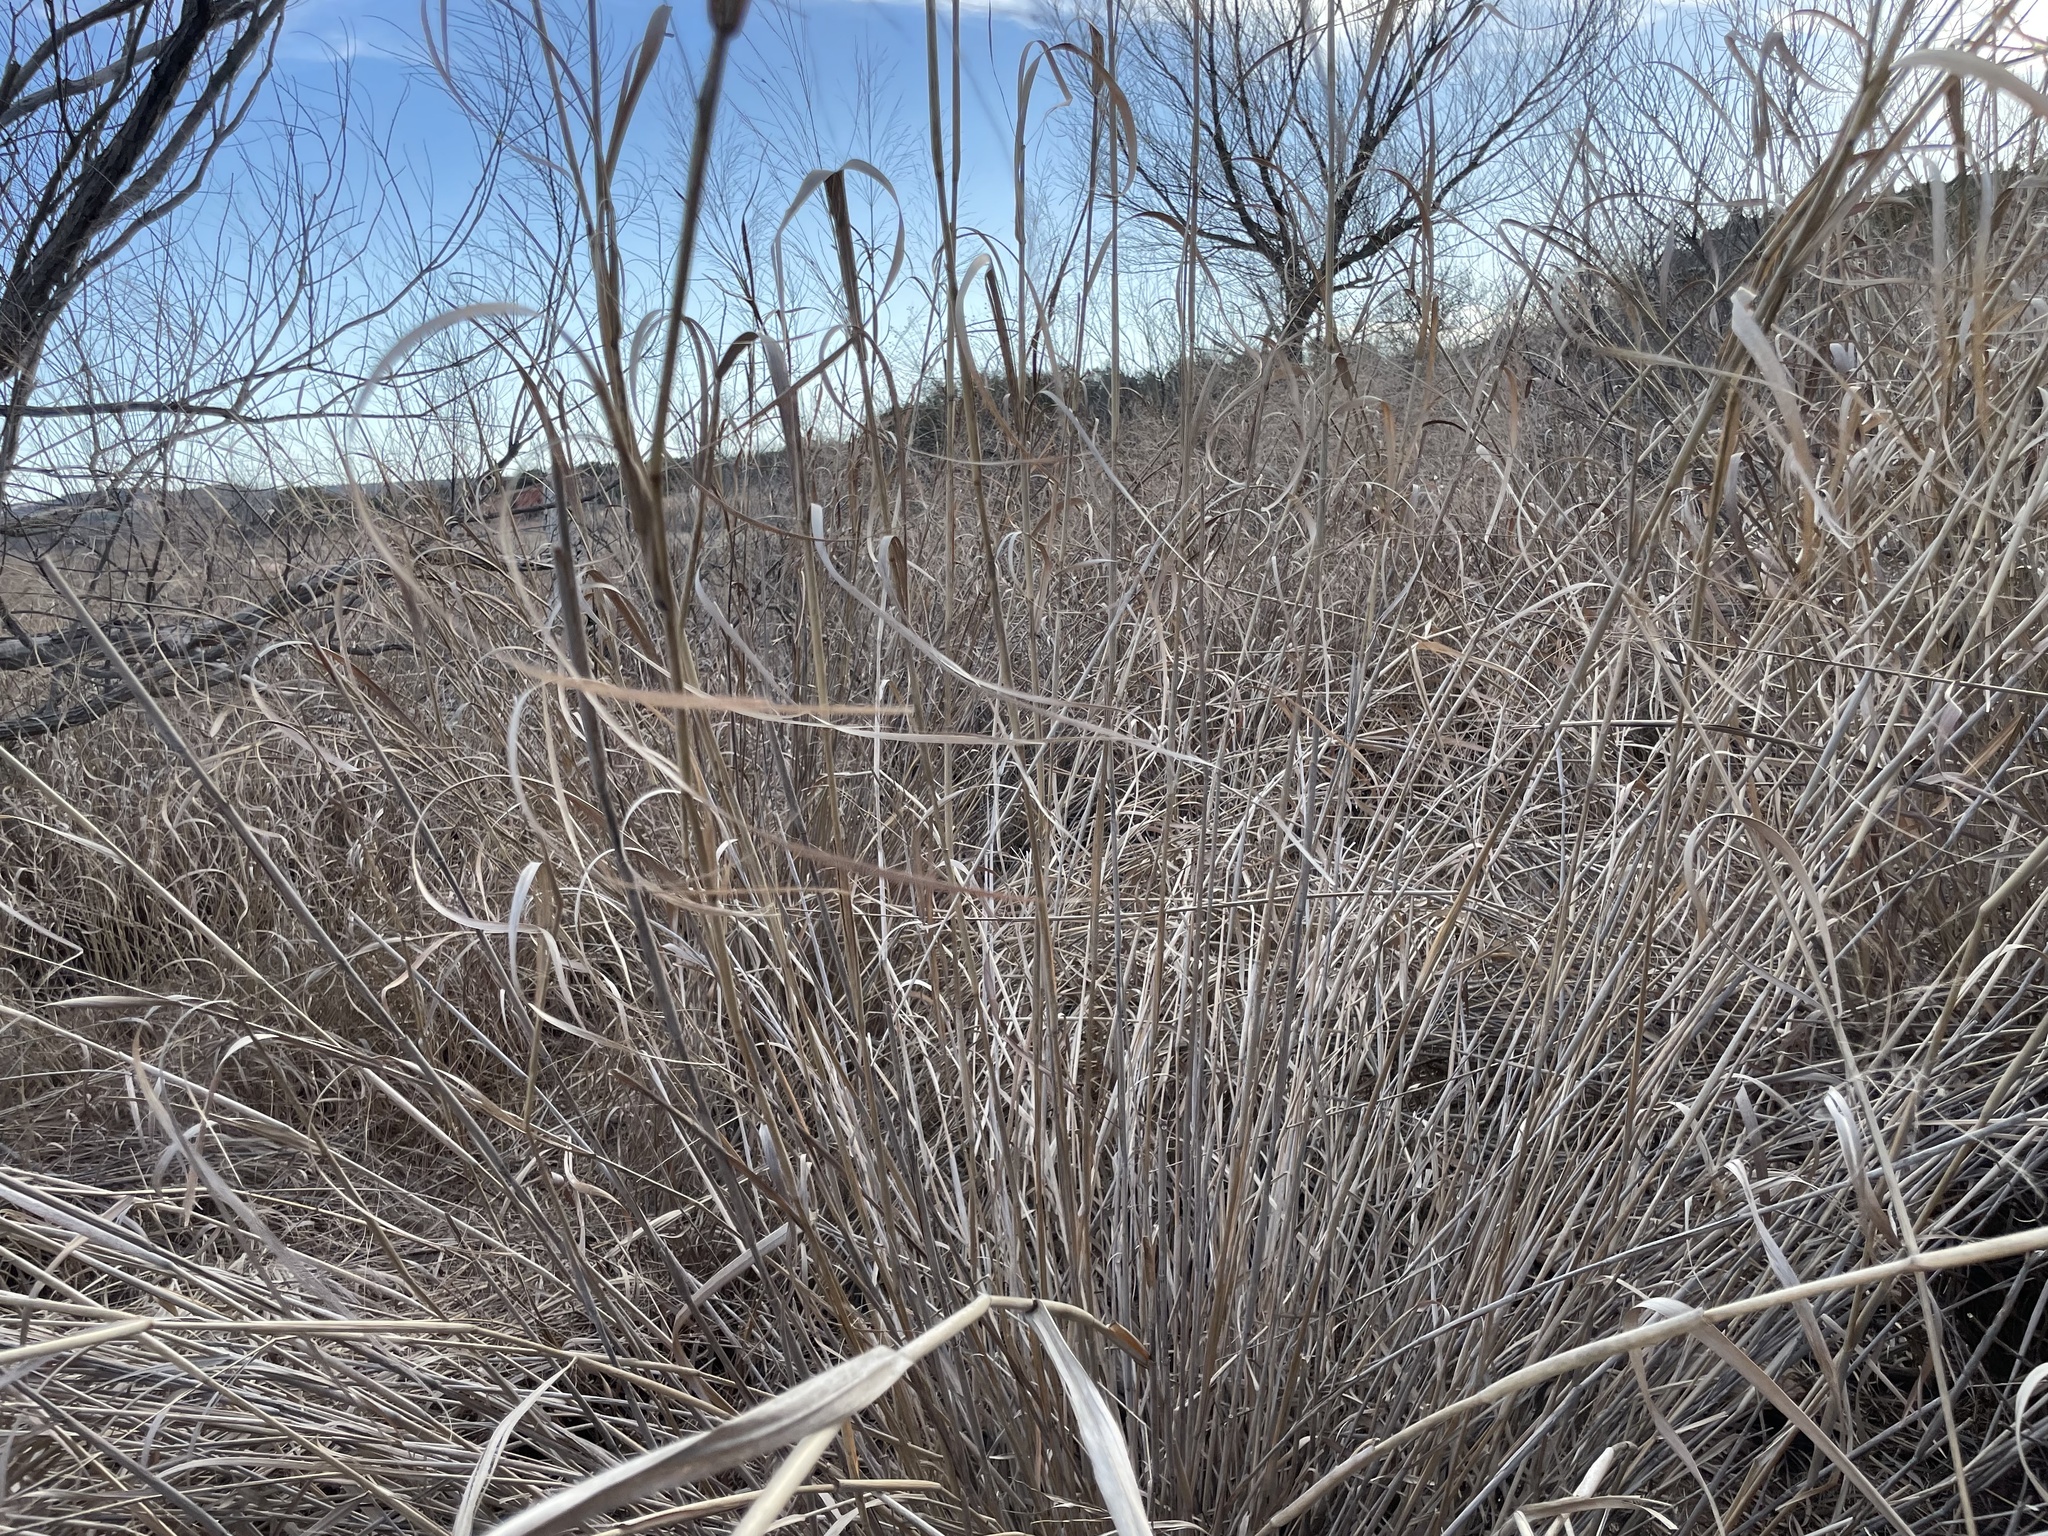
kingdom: Plantae
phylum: Tracheophyta
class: Liliopsida
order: Poales
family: Poaceae
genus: Panicum
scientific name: Panicum virgatum
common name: Switchgrass
